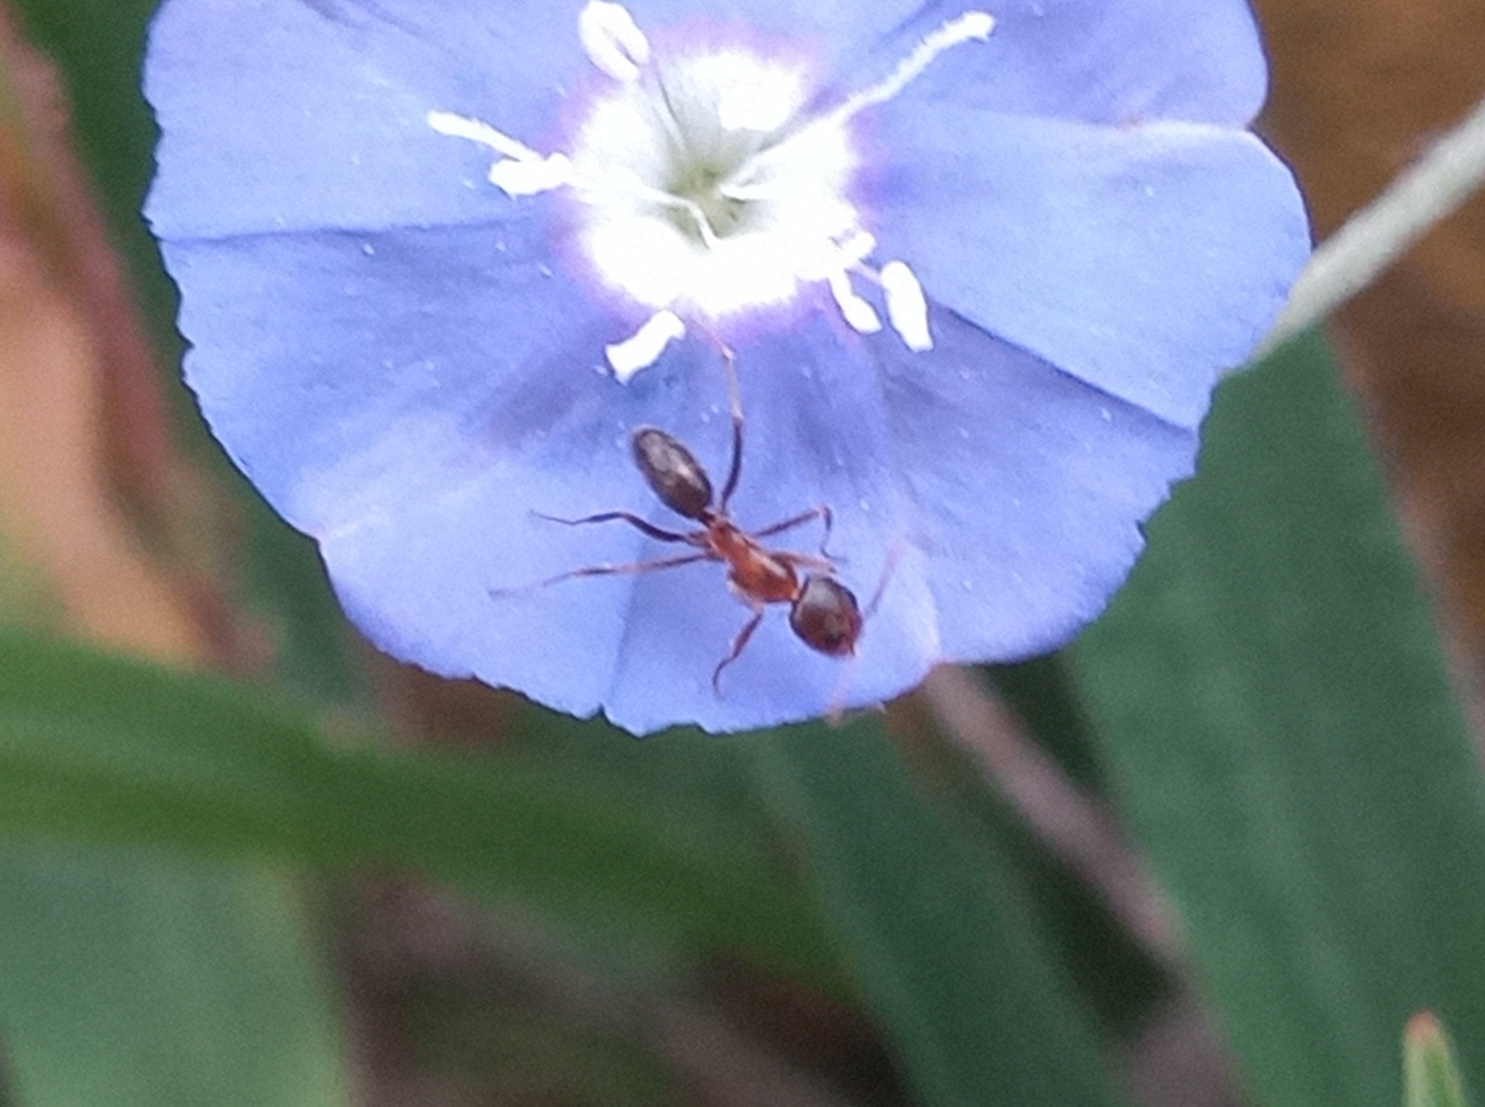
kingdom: Animalia
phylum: Arthropoda
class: Insecta
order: Hymenoptera
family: Formicidae
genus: Dorymyrmex
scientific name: Dorymyrmex bicolor
